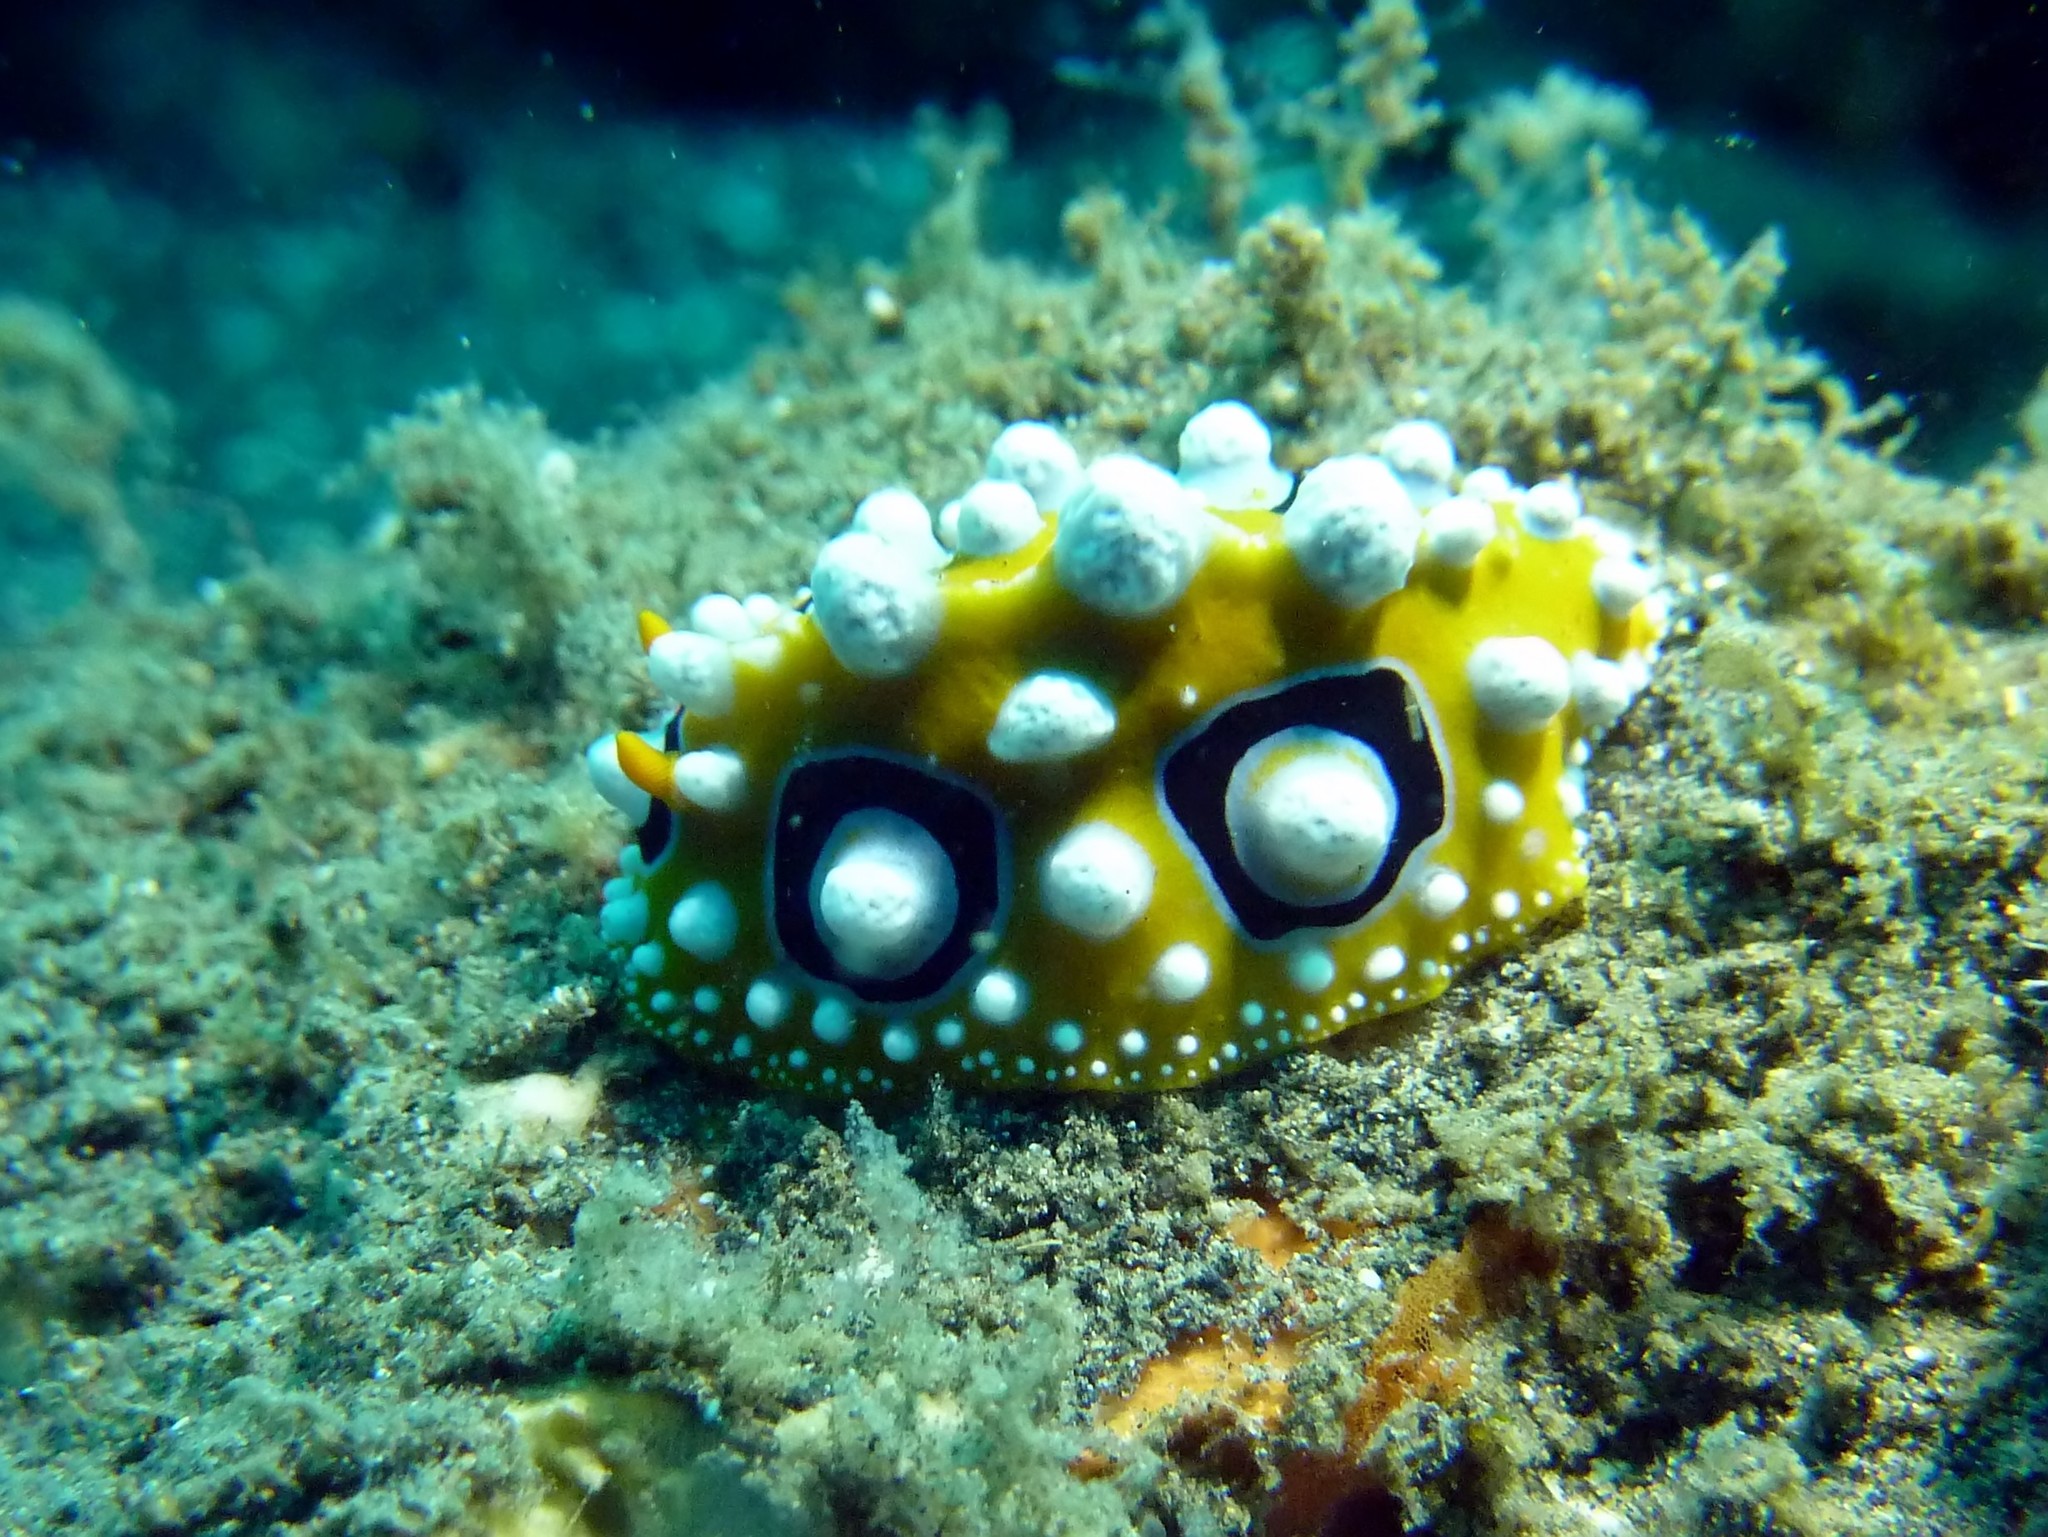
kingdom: Animalia
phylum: Mollusca
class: Gastropoda
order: Nudibranchia
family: Phyllidiidae
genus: Phyllidia
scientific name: Phyllidia ocellata
